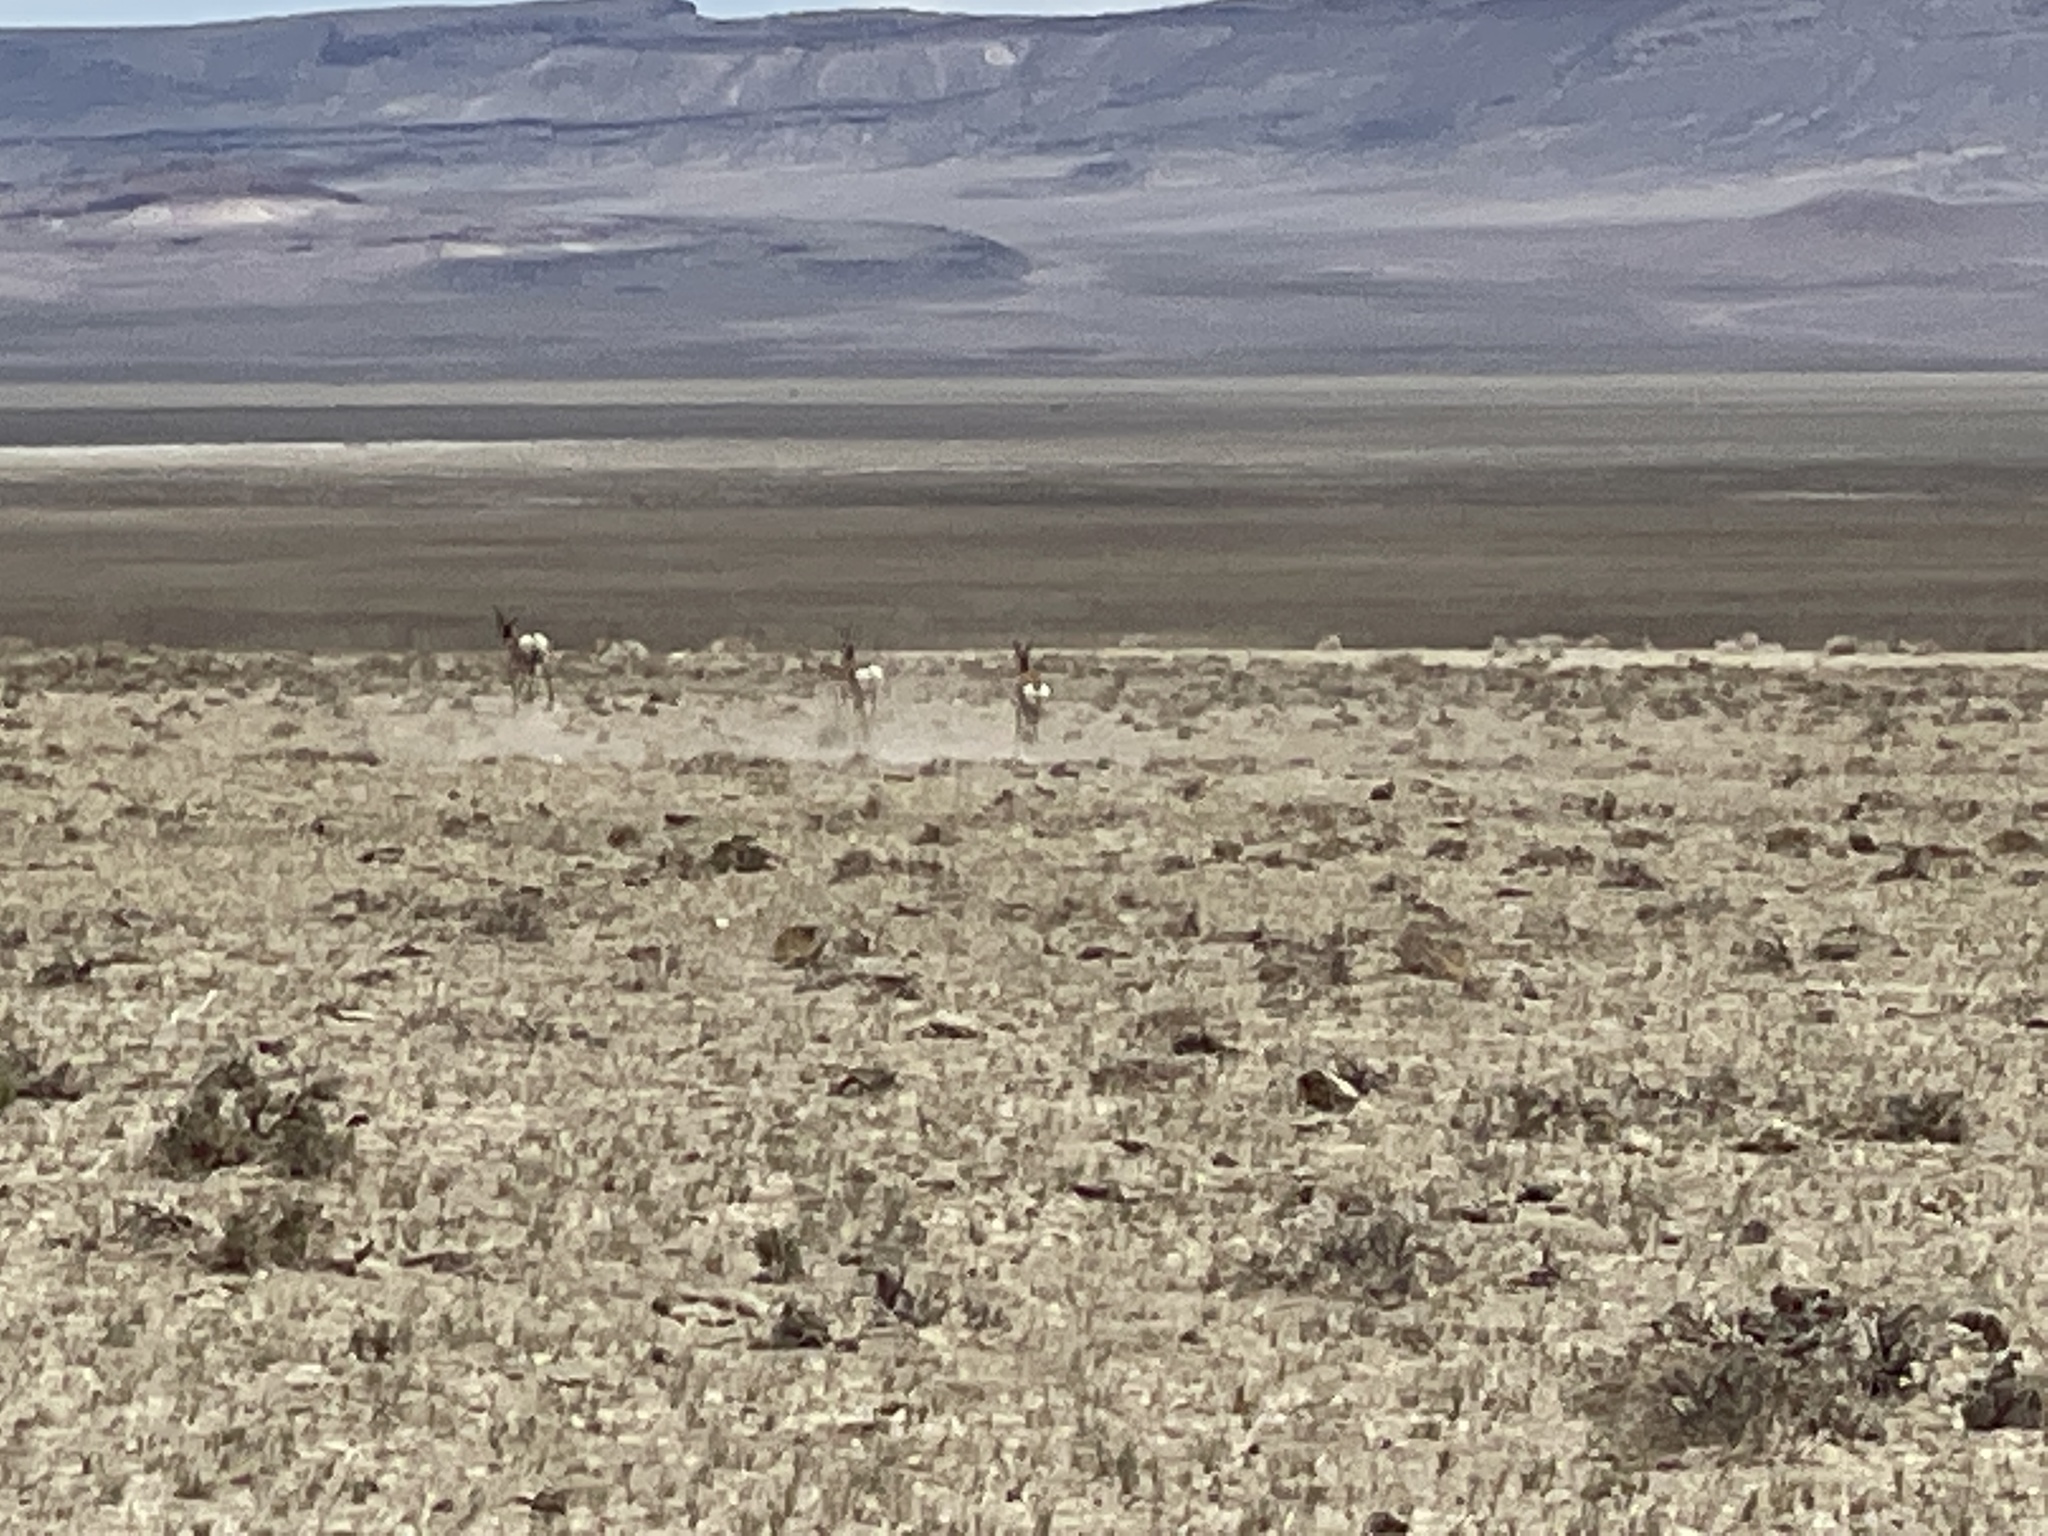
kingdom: Animalia
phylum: Chordata
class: Mammalia
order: Artiodactyla
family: Antilocapridae
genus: Antilocapra
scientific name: Antilocapra americana
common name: Pronghorn
